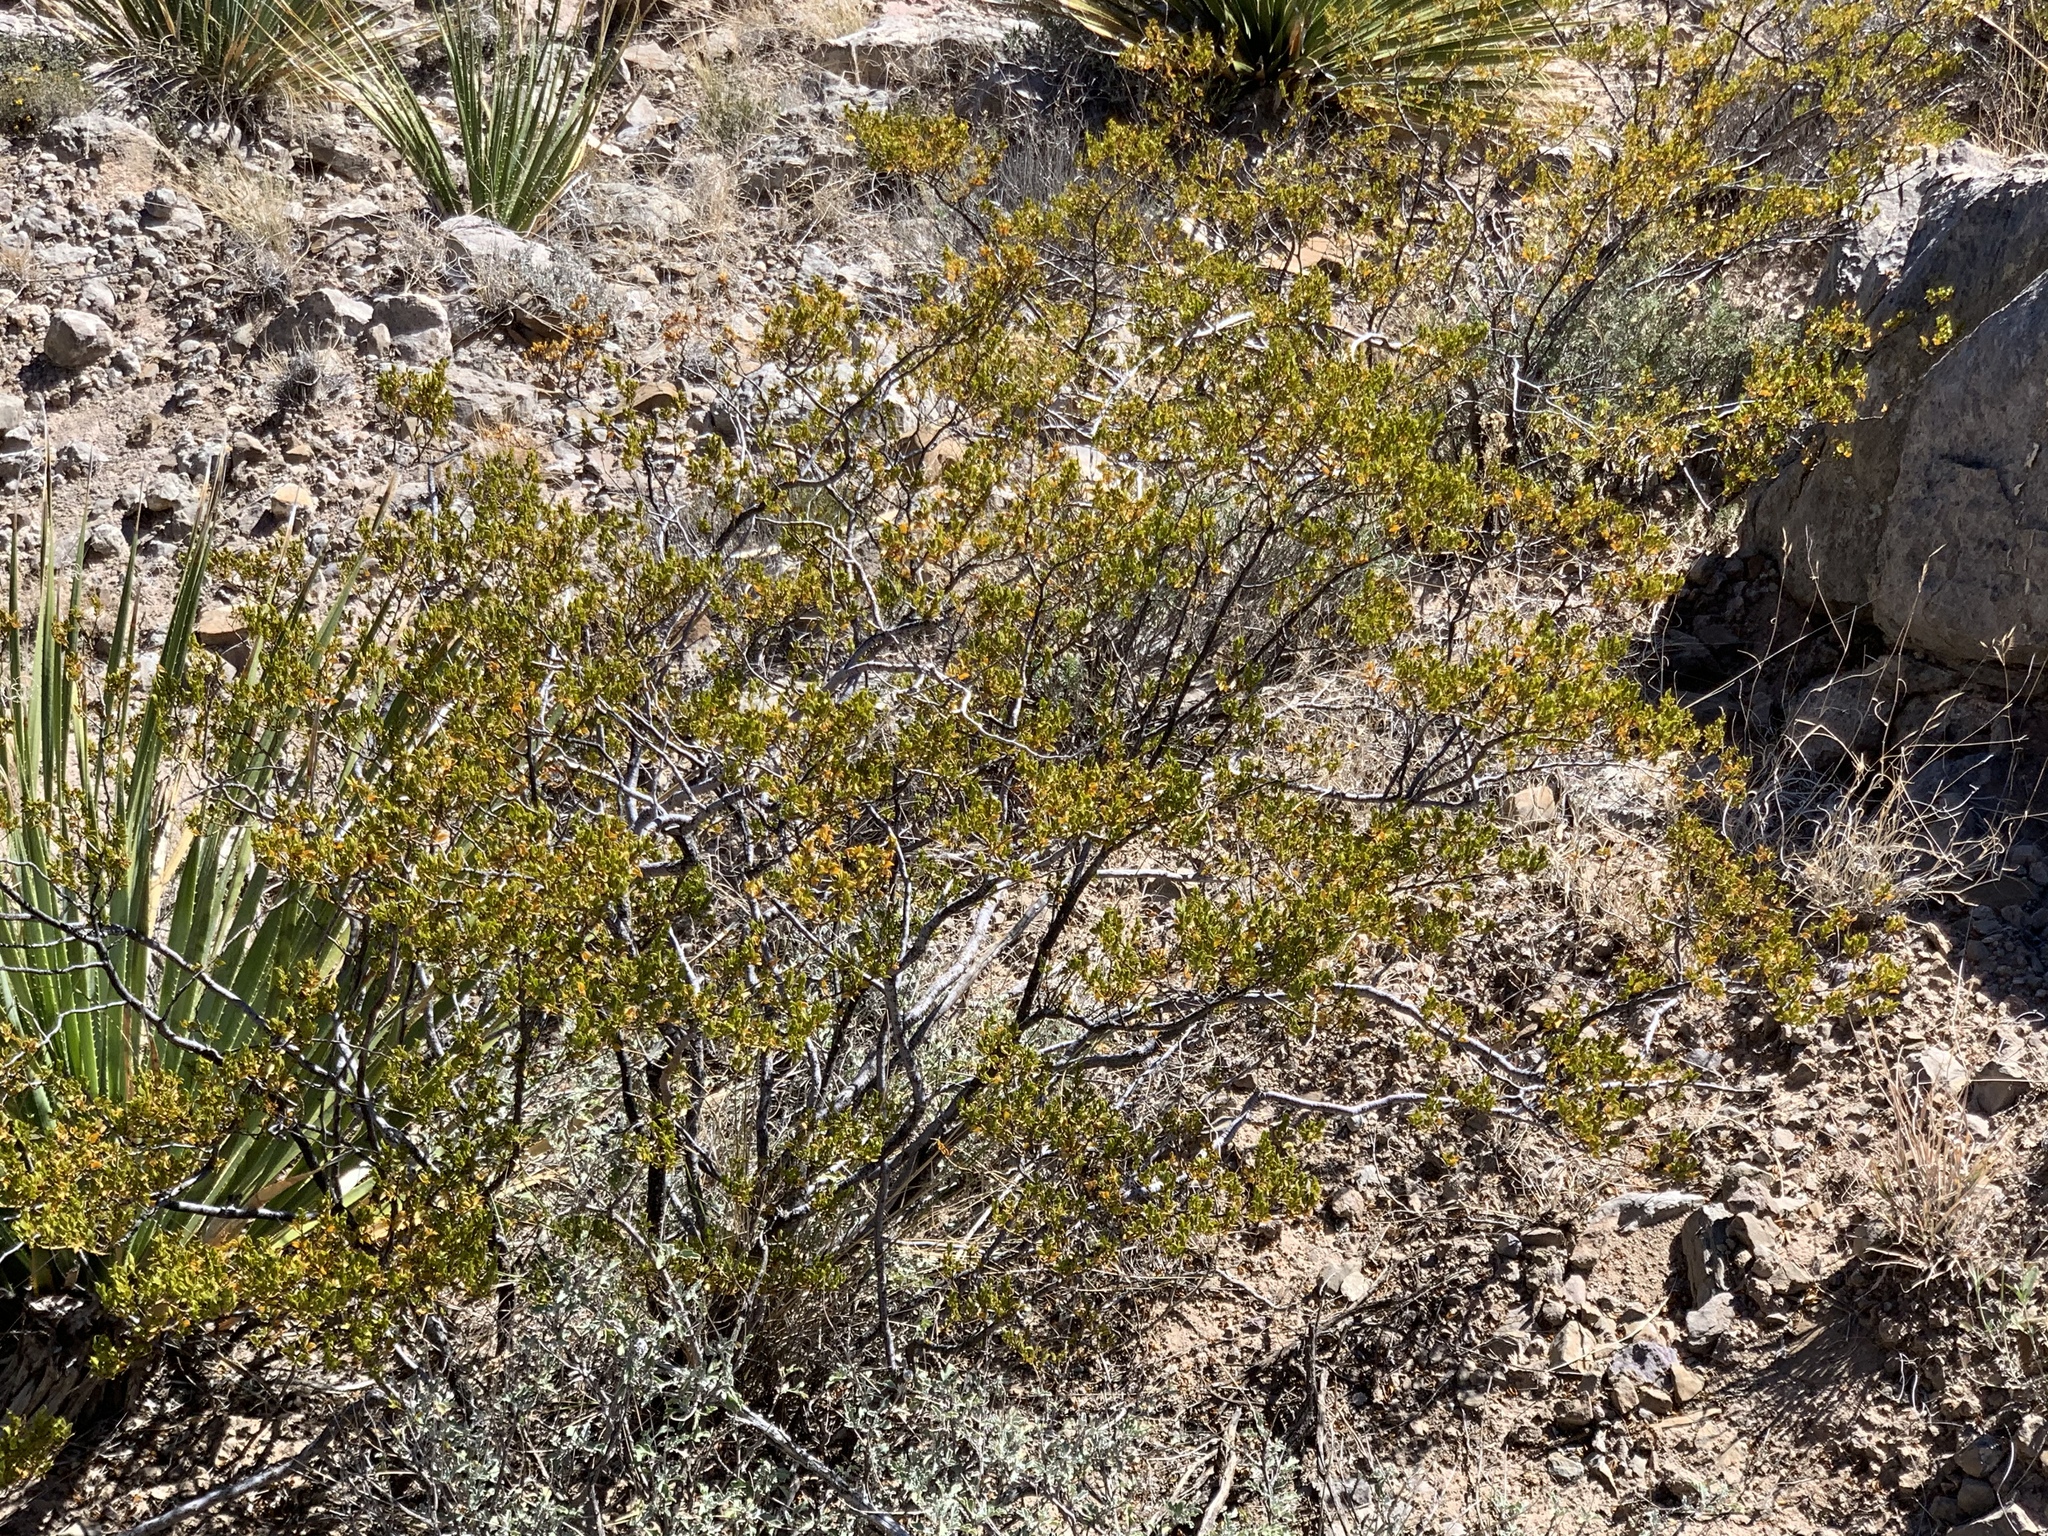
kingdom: Plantae
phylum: Tracheophyta
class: Magnoliopsida
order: Zygophyllales
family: Zygophyllaceae
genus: Larrea
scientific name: Larrea tridentata
